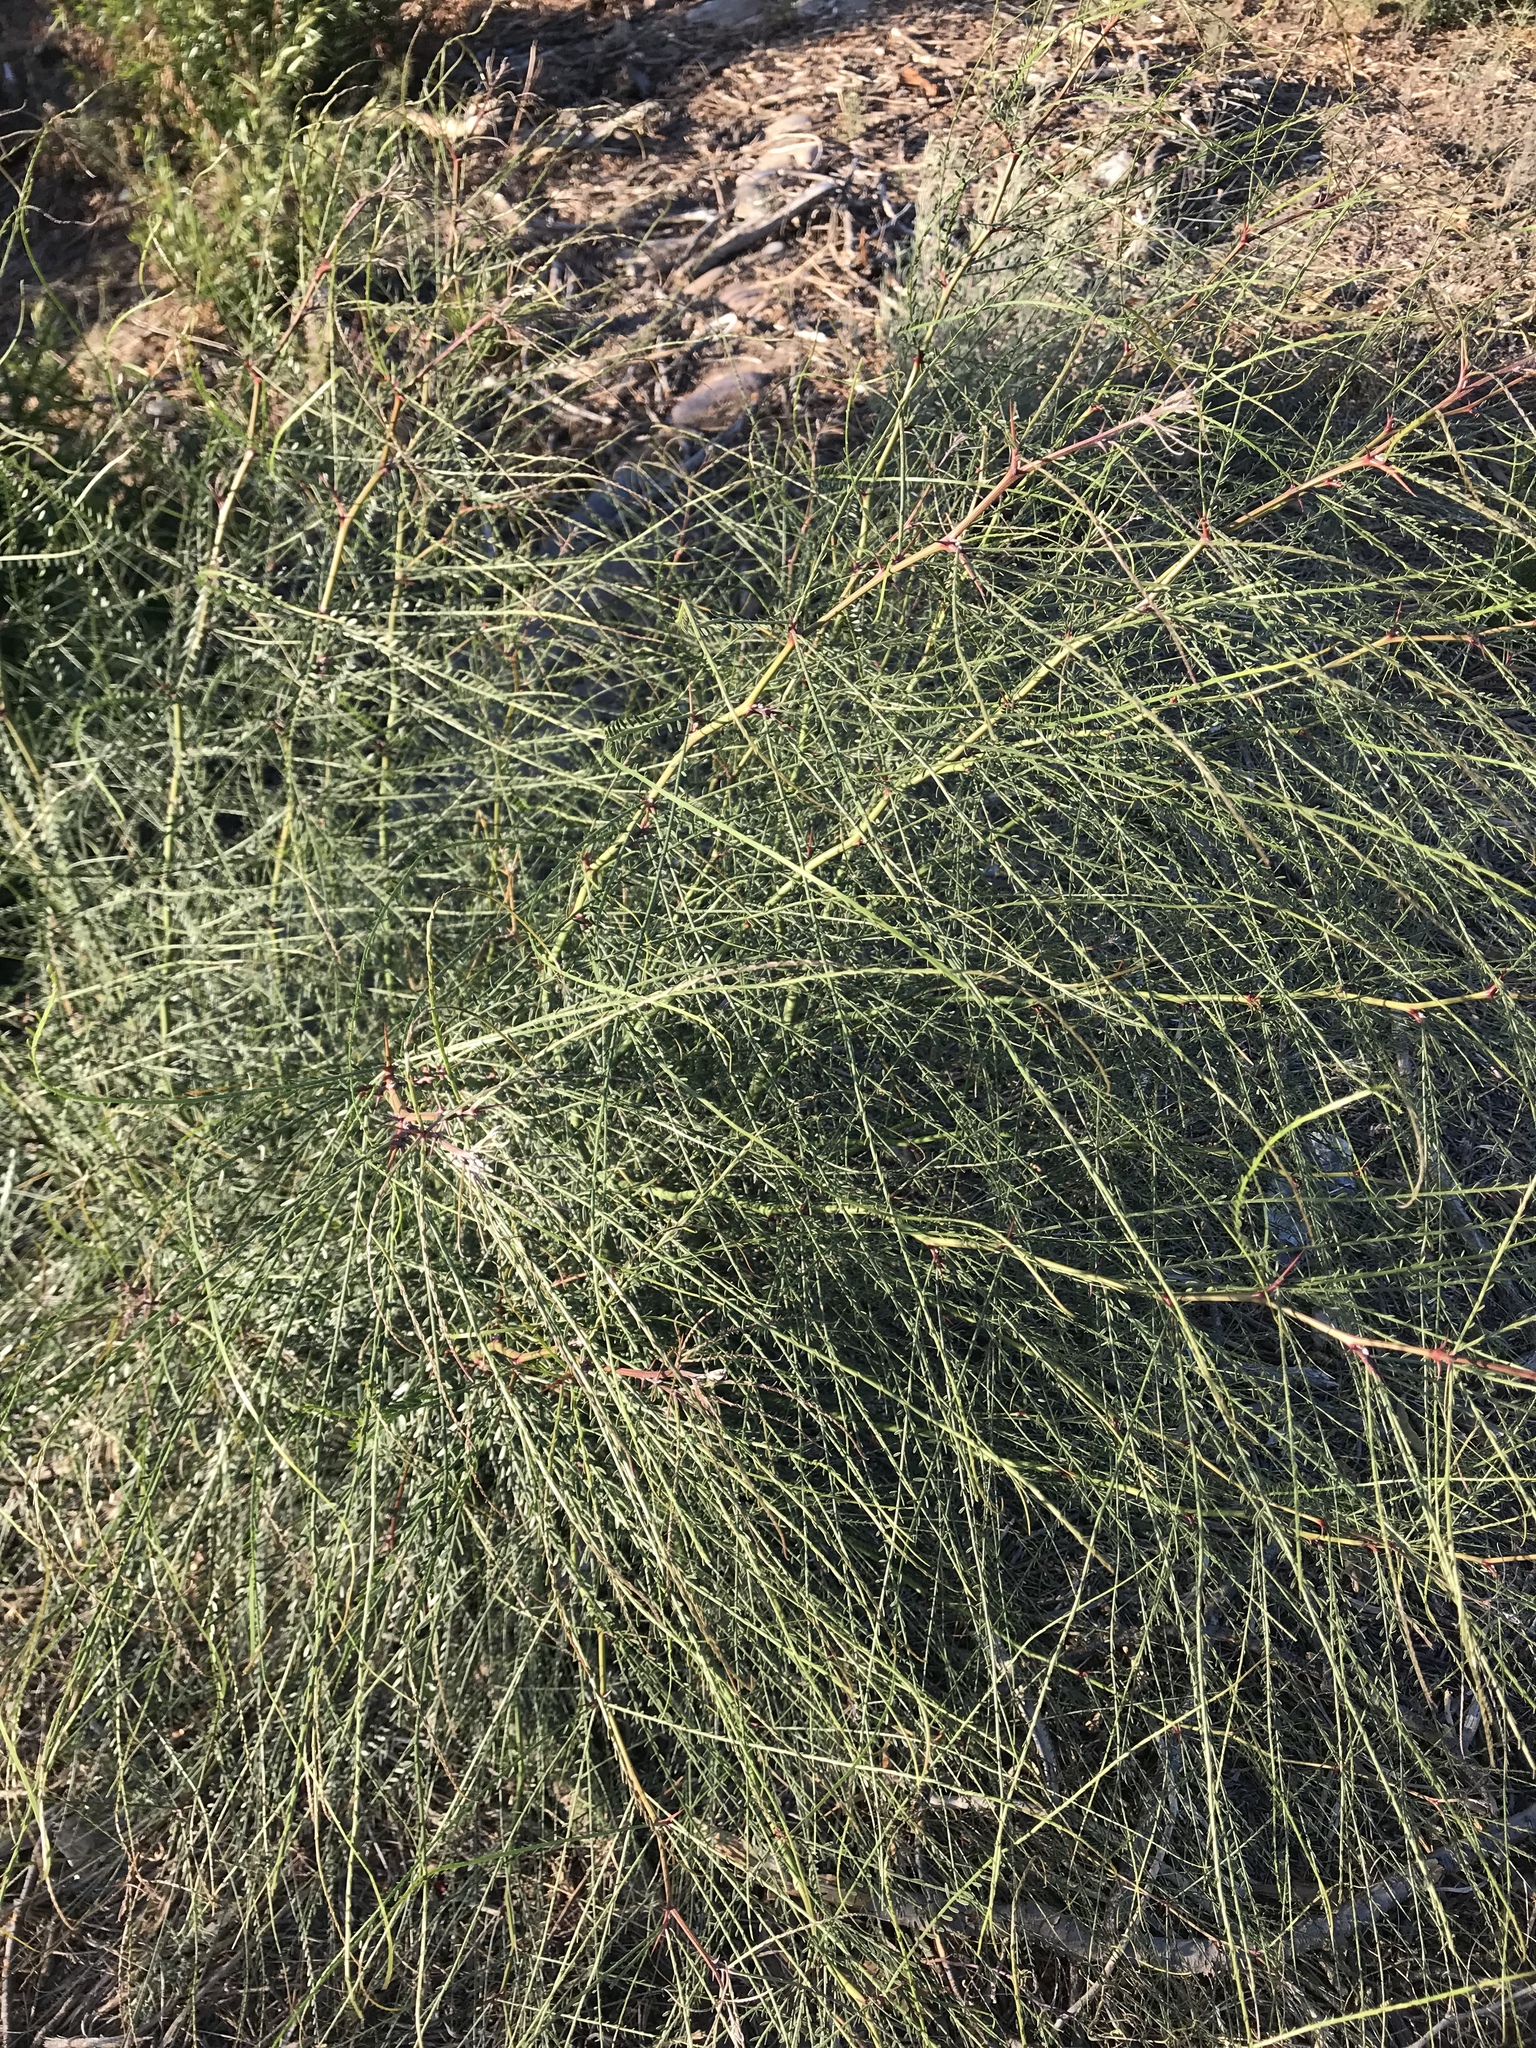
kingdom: Plantae
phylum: Tracheophyta
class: Magnoliopsida
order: Fabales
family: Fabaceae
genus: Parkinsonia
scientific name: Parkinsonia aculeata
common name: Jerusalem thorn
